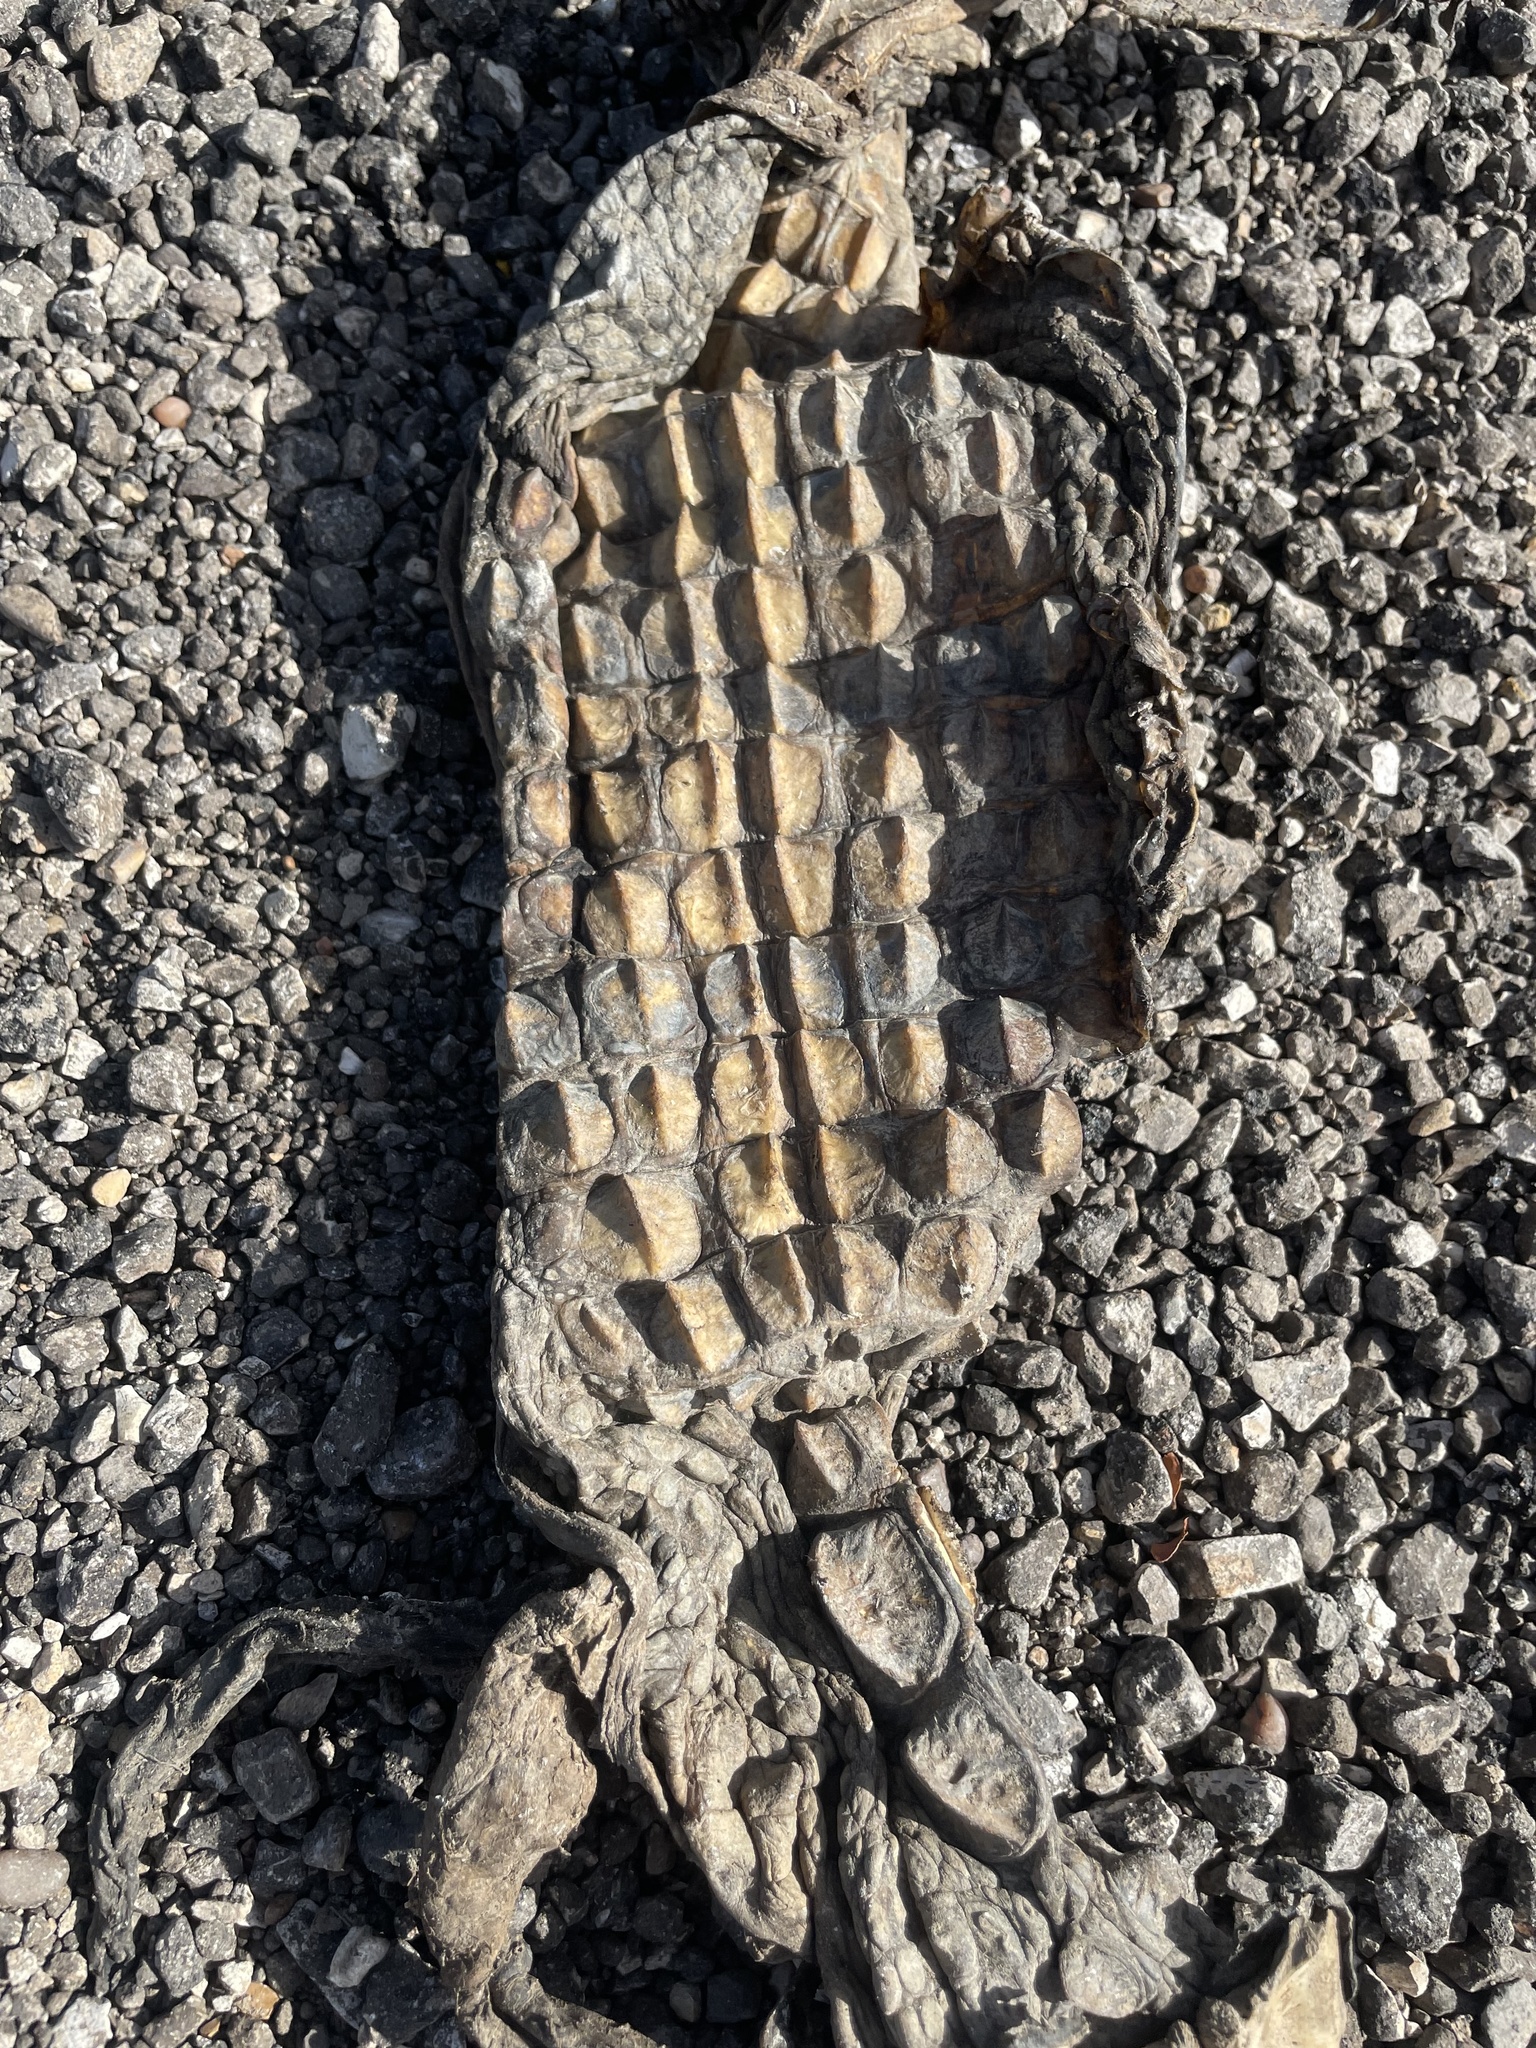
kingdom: Animalia
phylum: Chordata
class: Crocodylia
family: Alligatoridae
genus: Alligator
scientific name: Alligator mississippiensis
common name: American alligator
